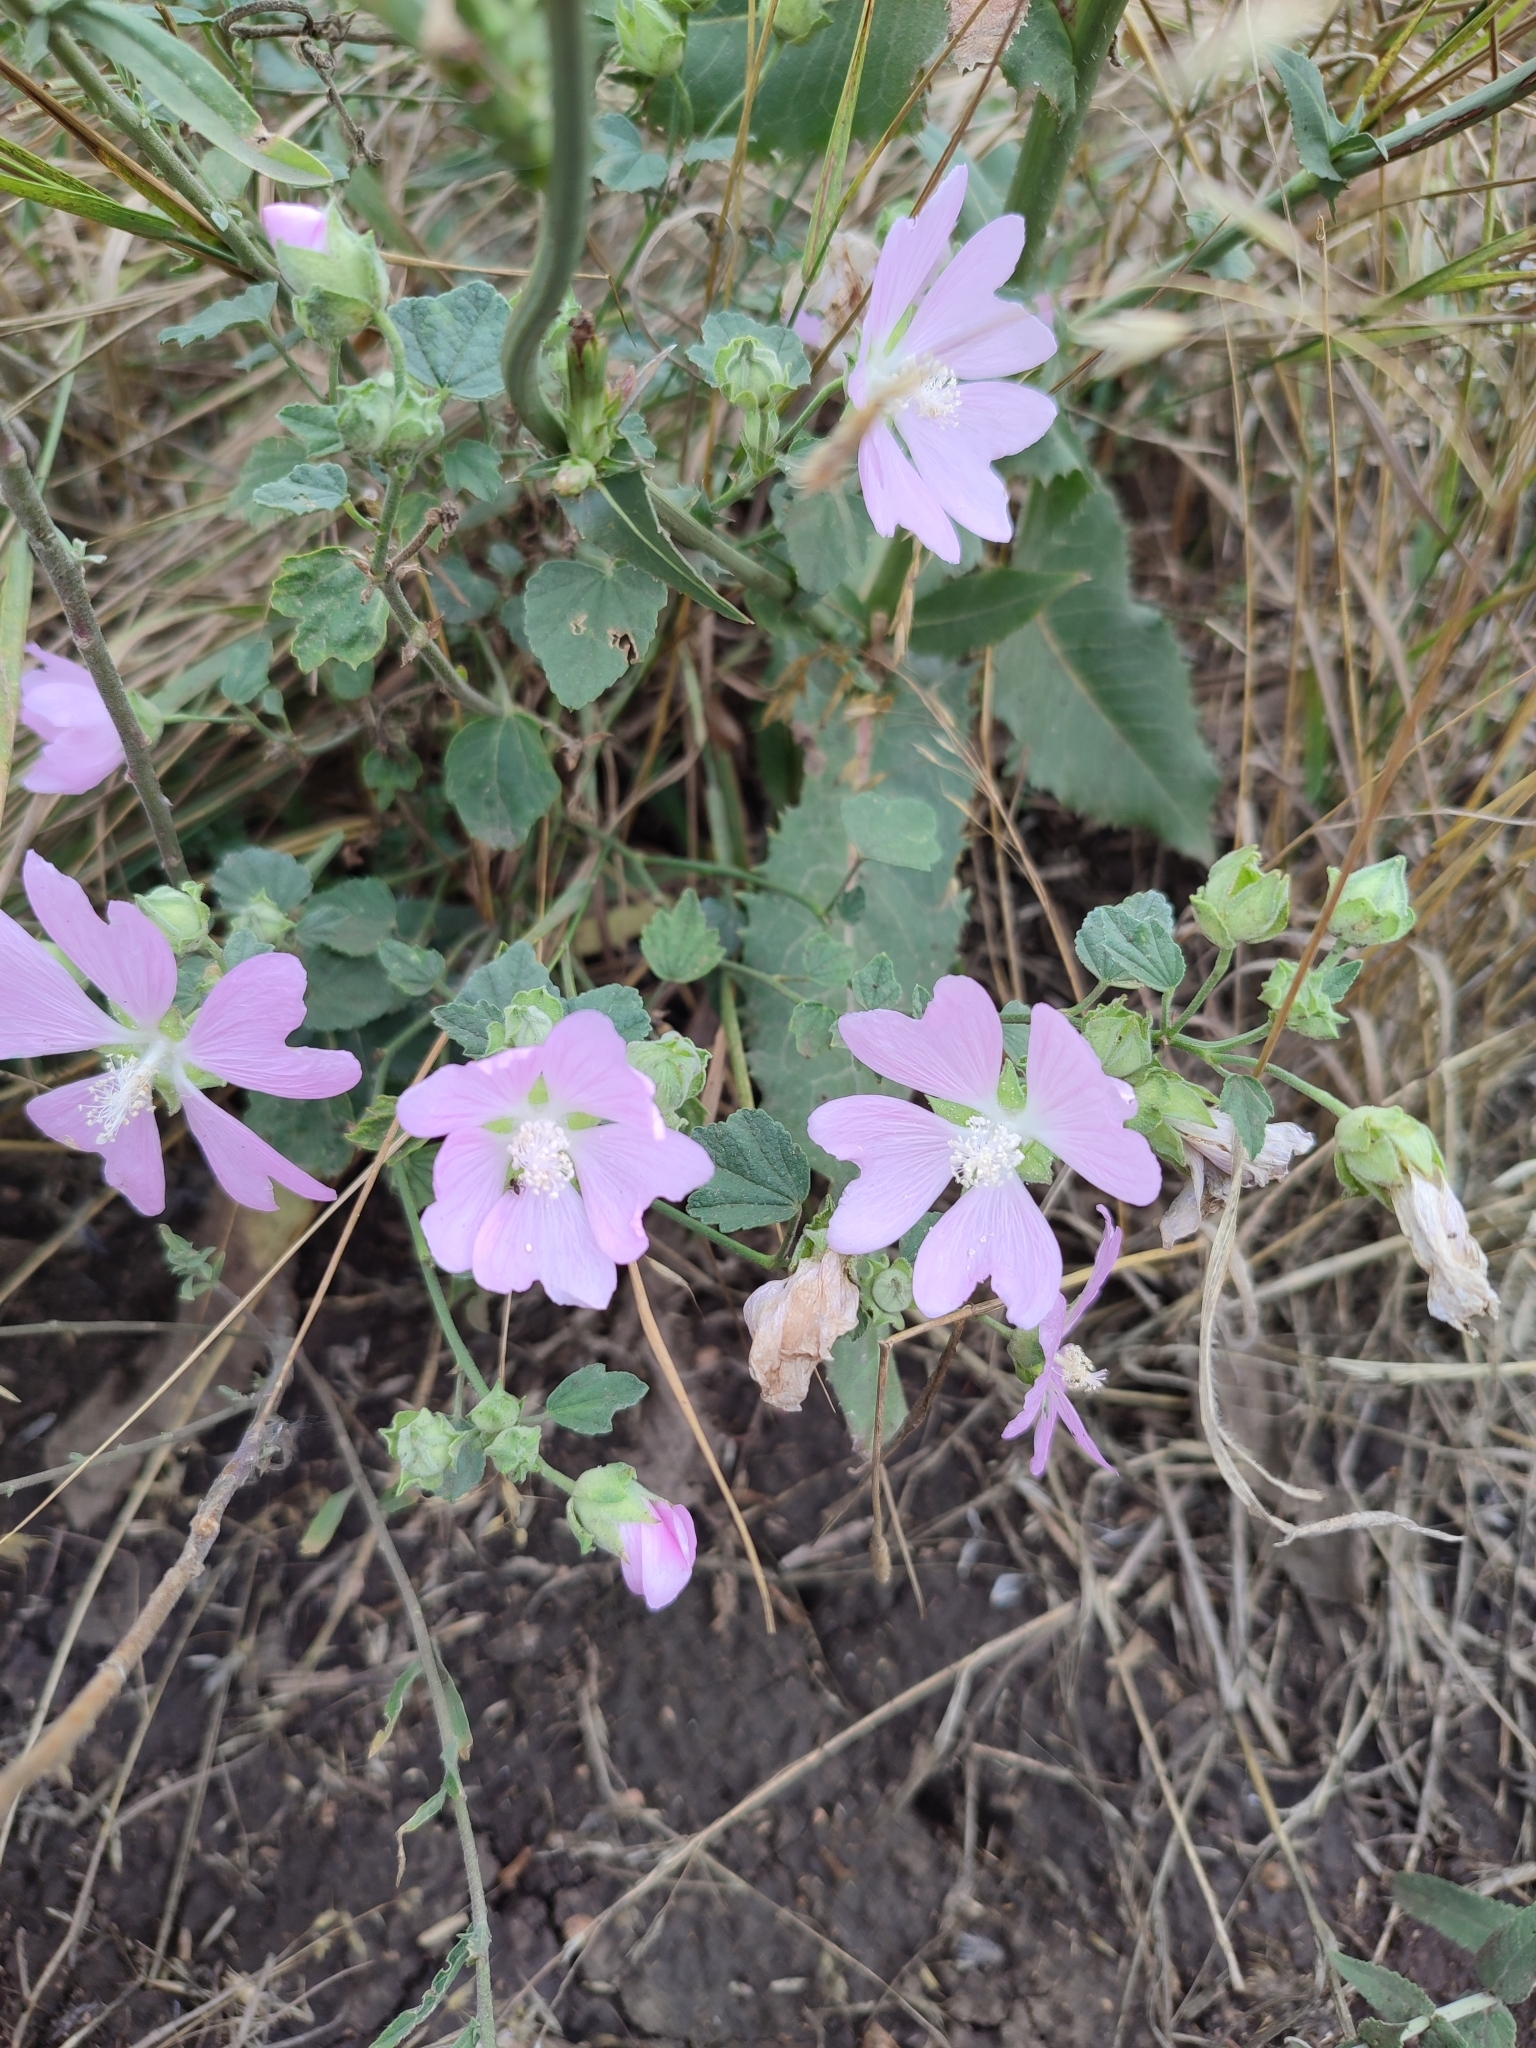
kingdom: Plantae
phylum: Tracheophyta
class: Magnoliopsida
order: Malvales
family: Malvaceae
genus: Malva
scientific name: Malva thuringiaca
